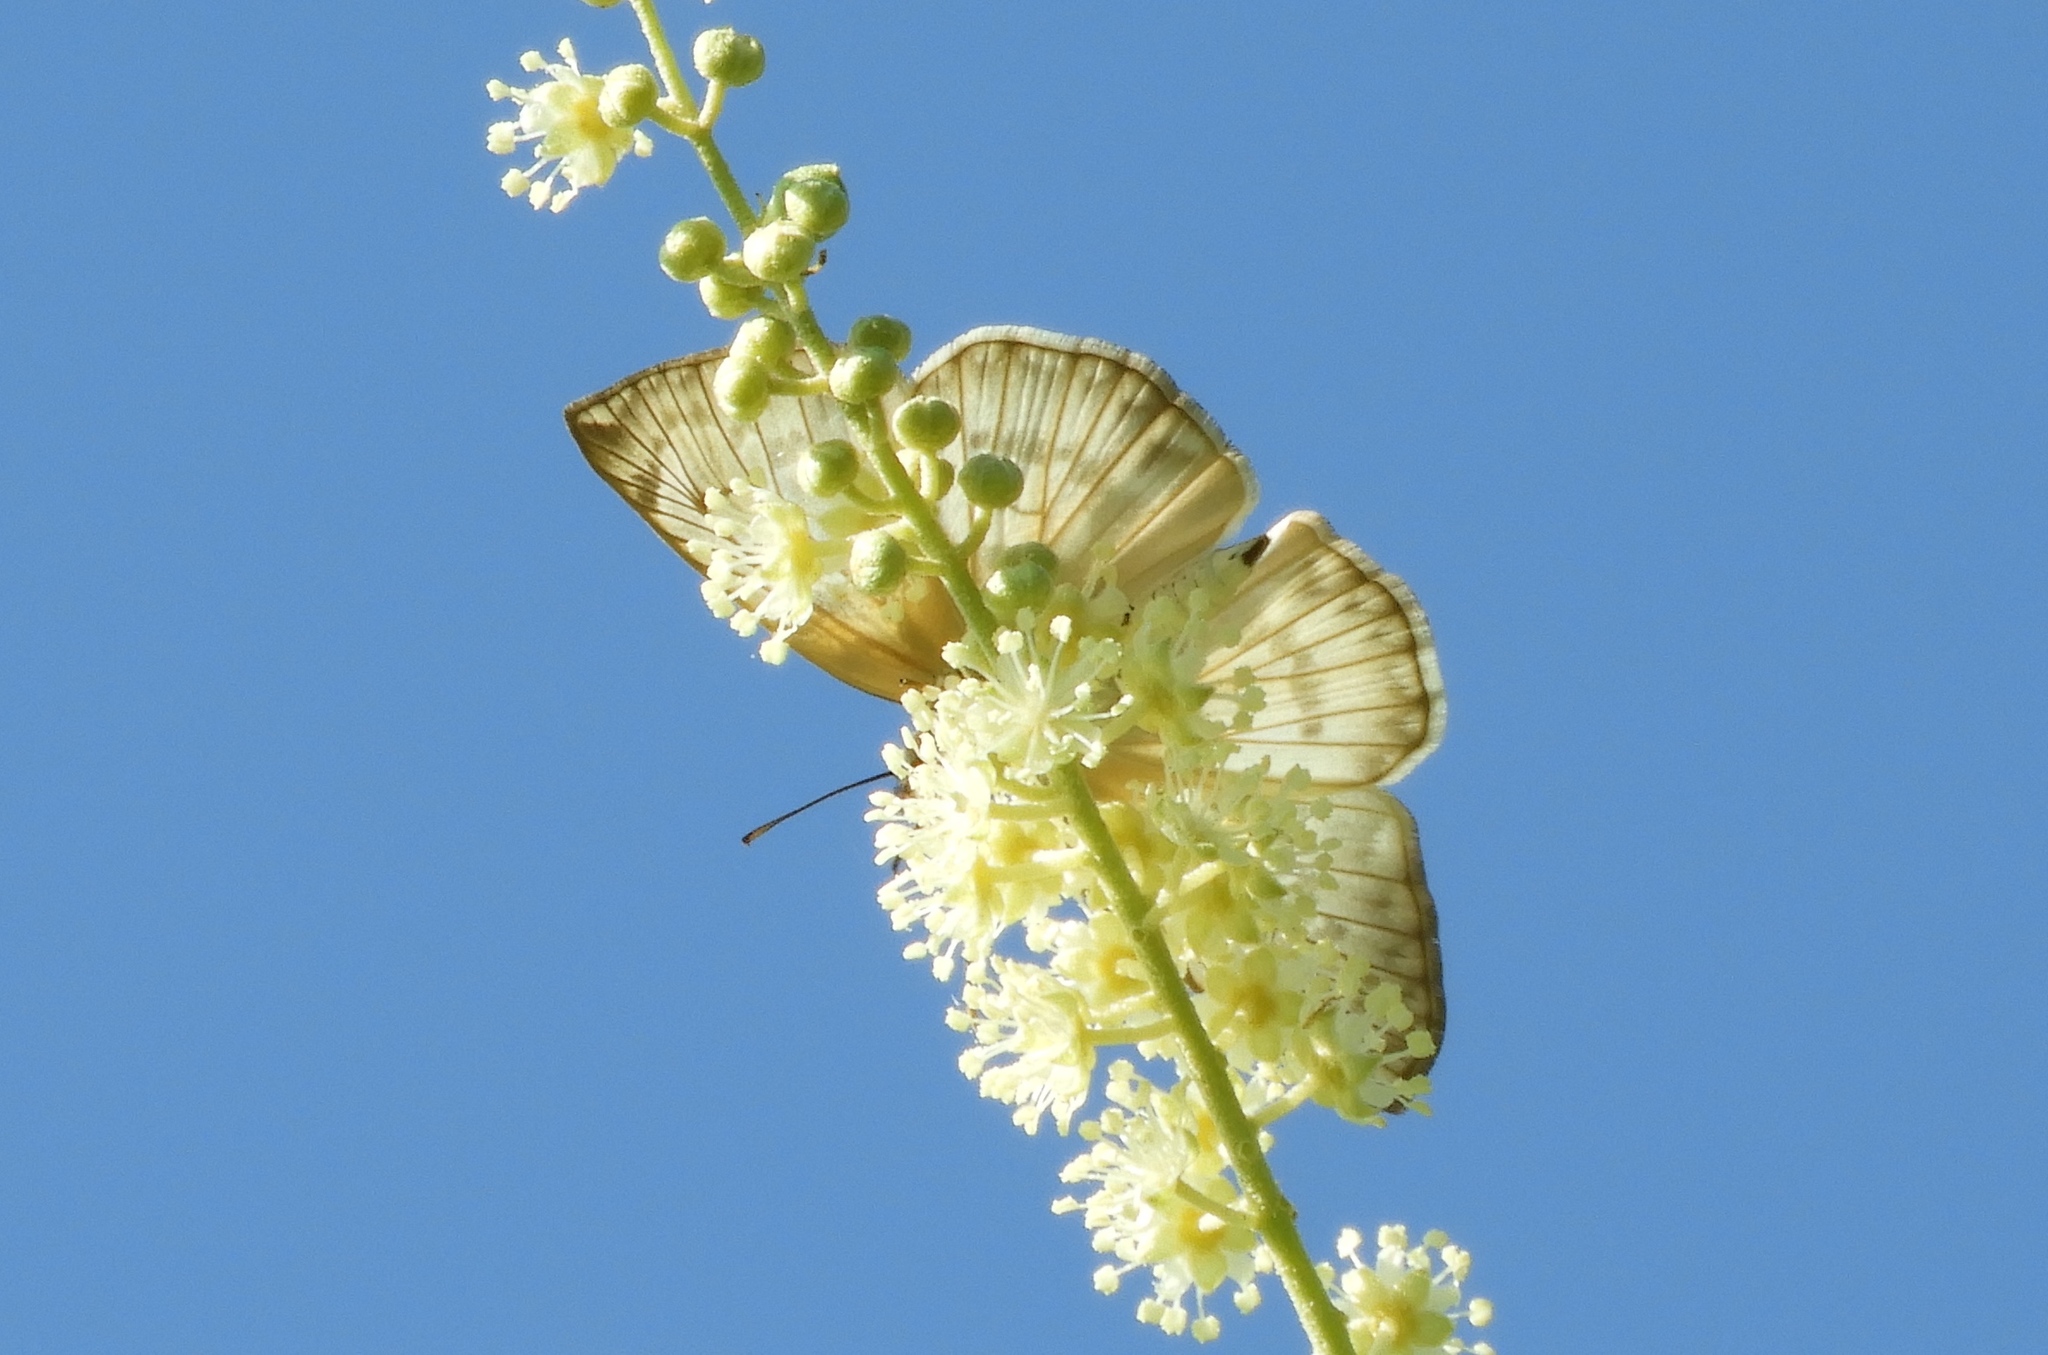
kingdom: Animalia
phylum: Arthropoda
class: Insecta
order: Lepidoptera
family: Hesperiidae
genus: Mylon
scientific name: Mylon
